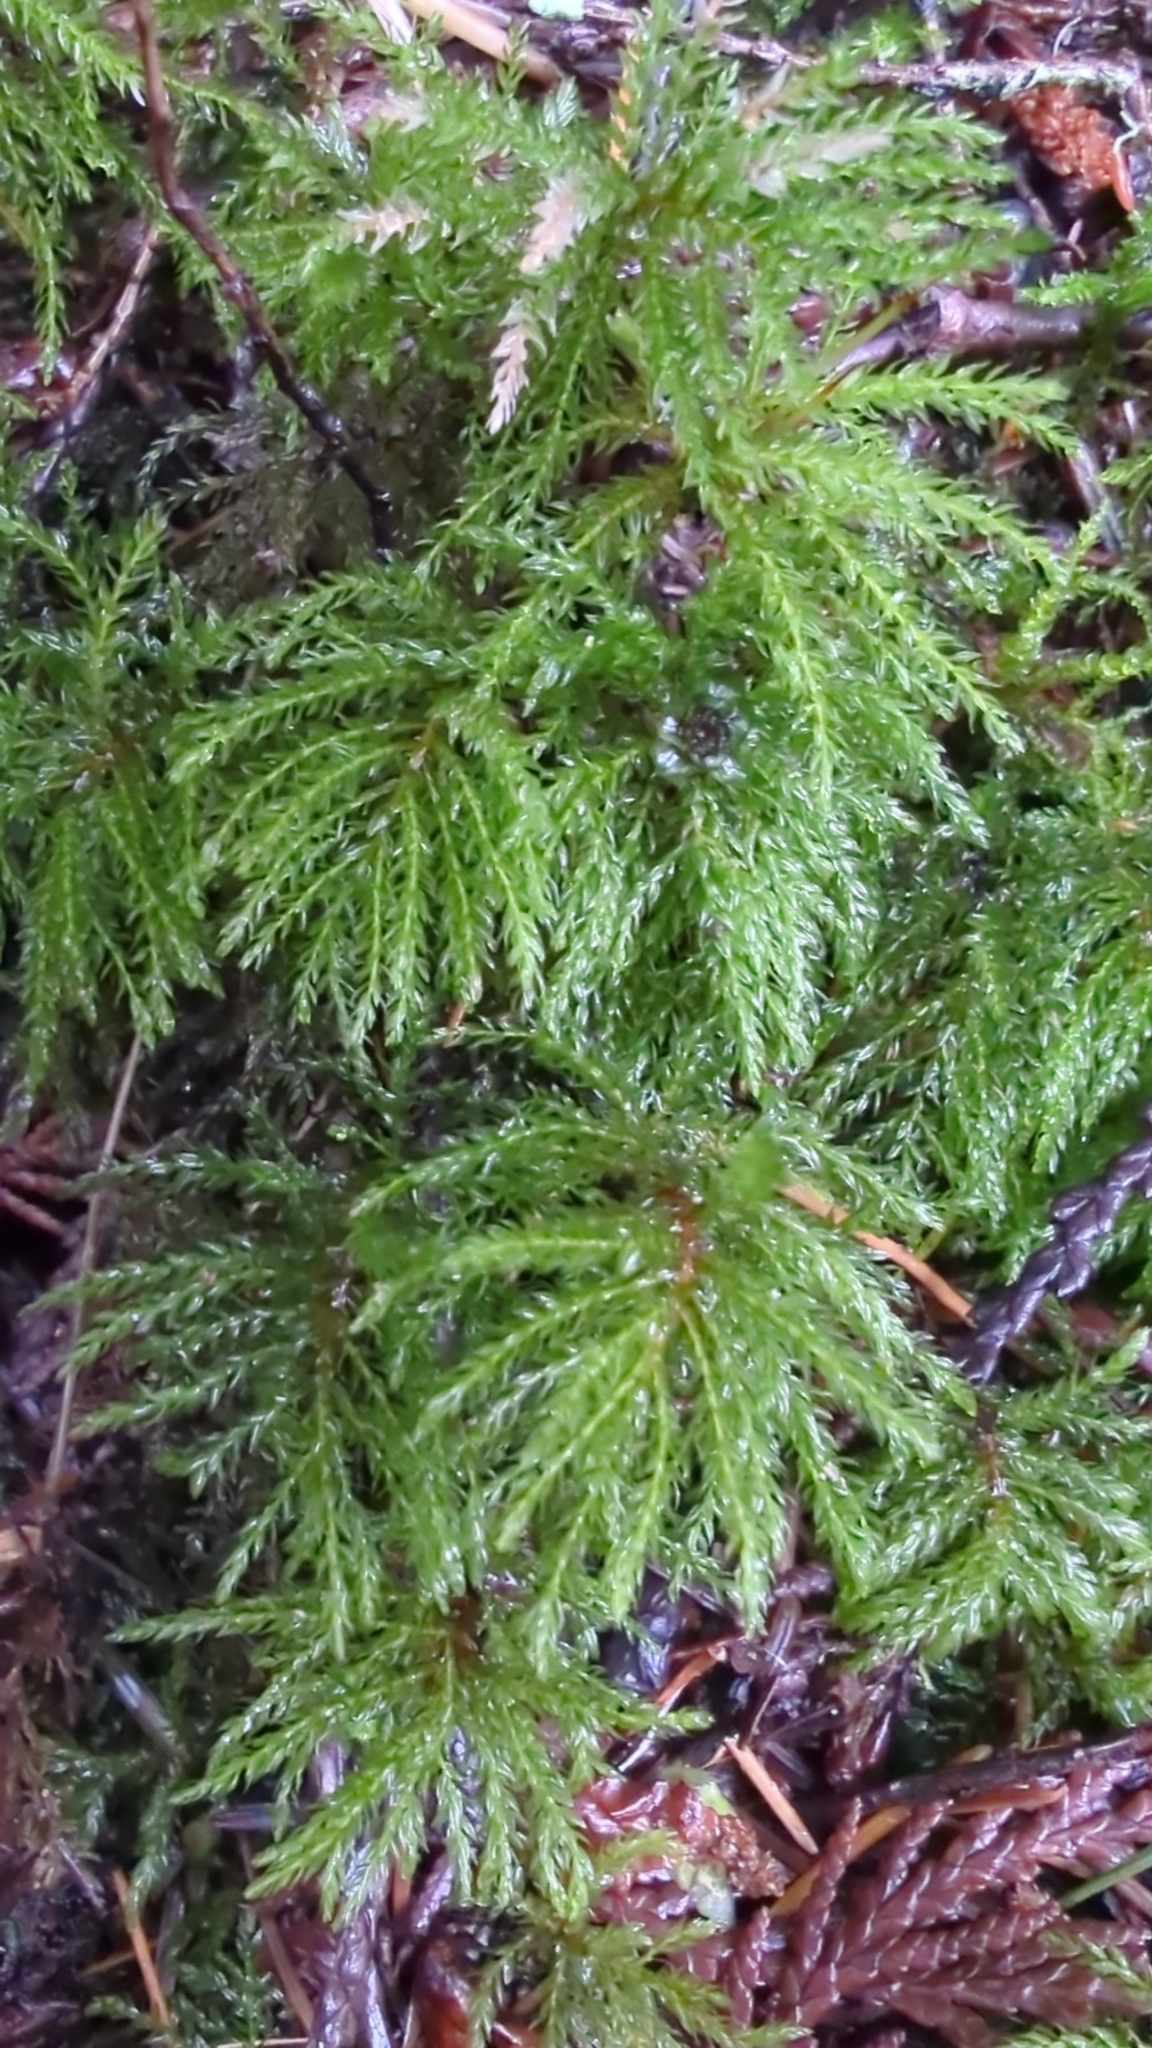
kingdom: Plantae
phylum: Bryophyta
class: Bryopsida
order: Bryales
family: Mniaceae
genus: Leucolepis
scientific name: Leucolepis acanthoneura
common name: Leucolepis umbrella moss
